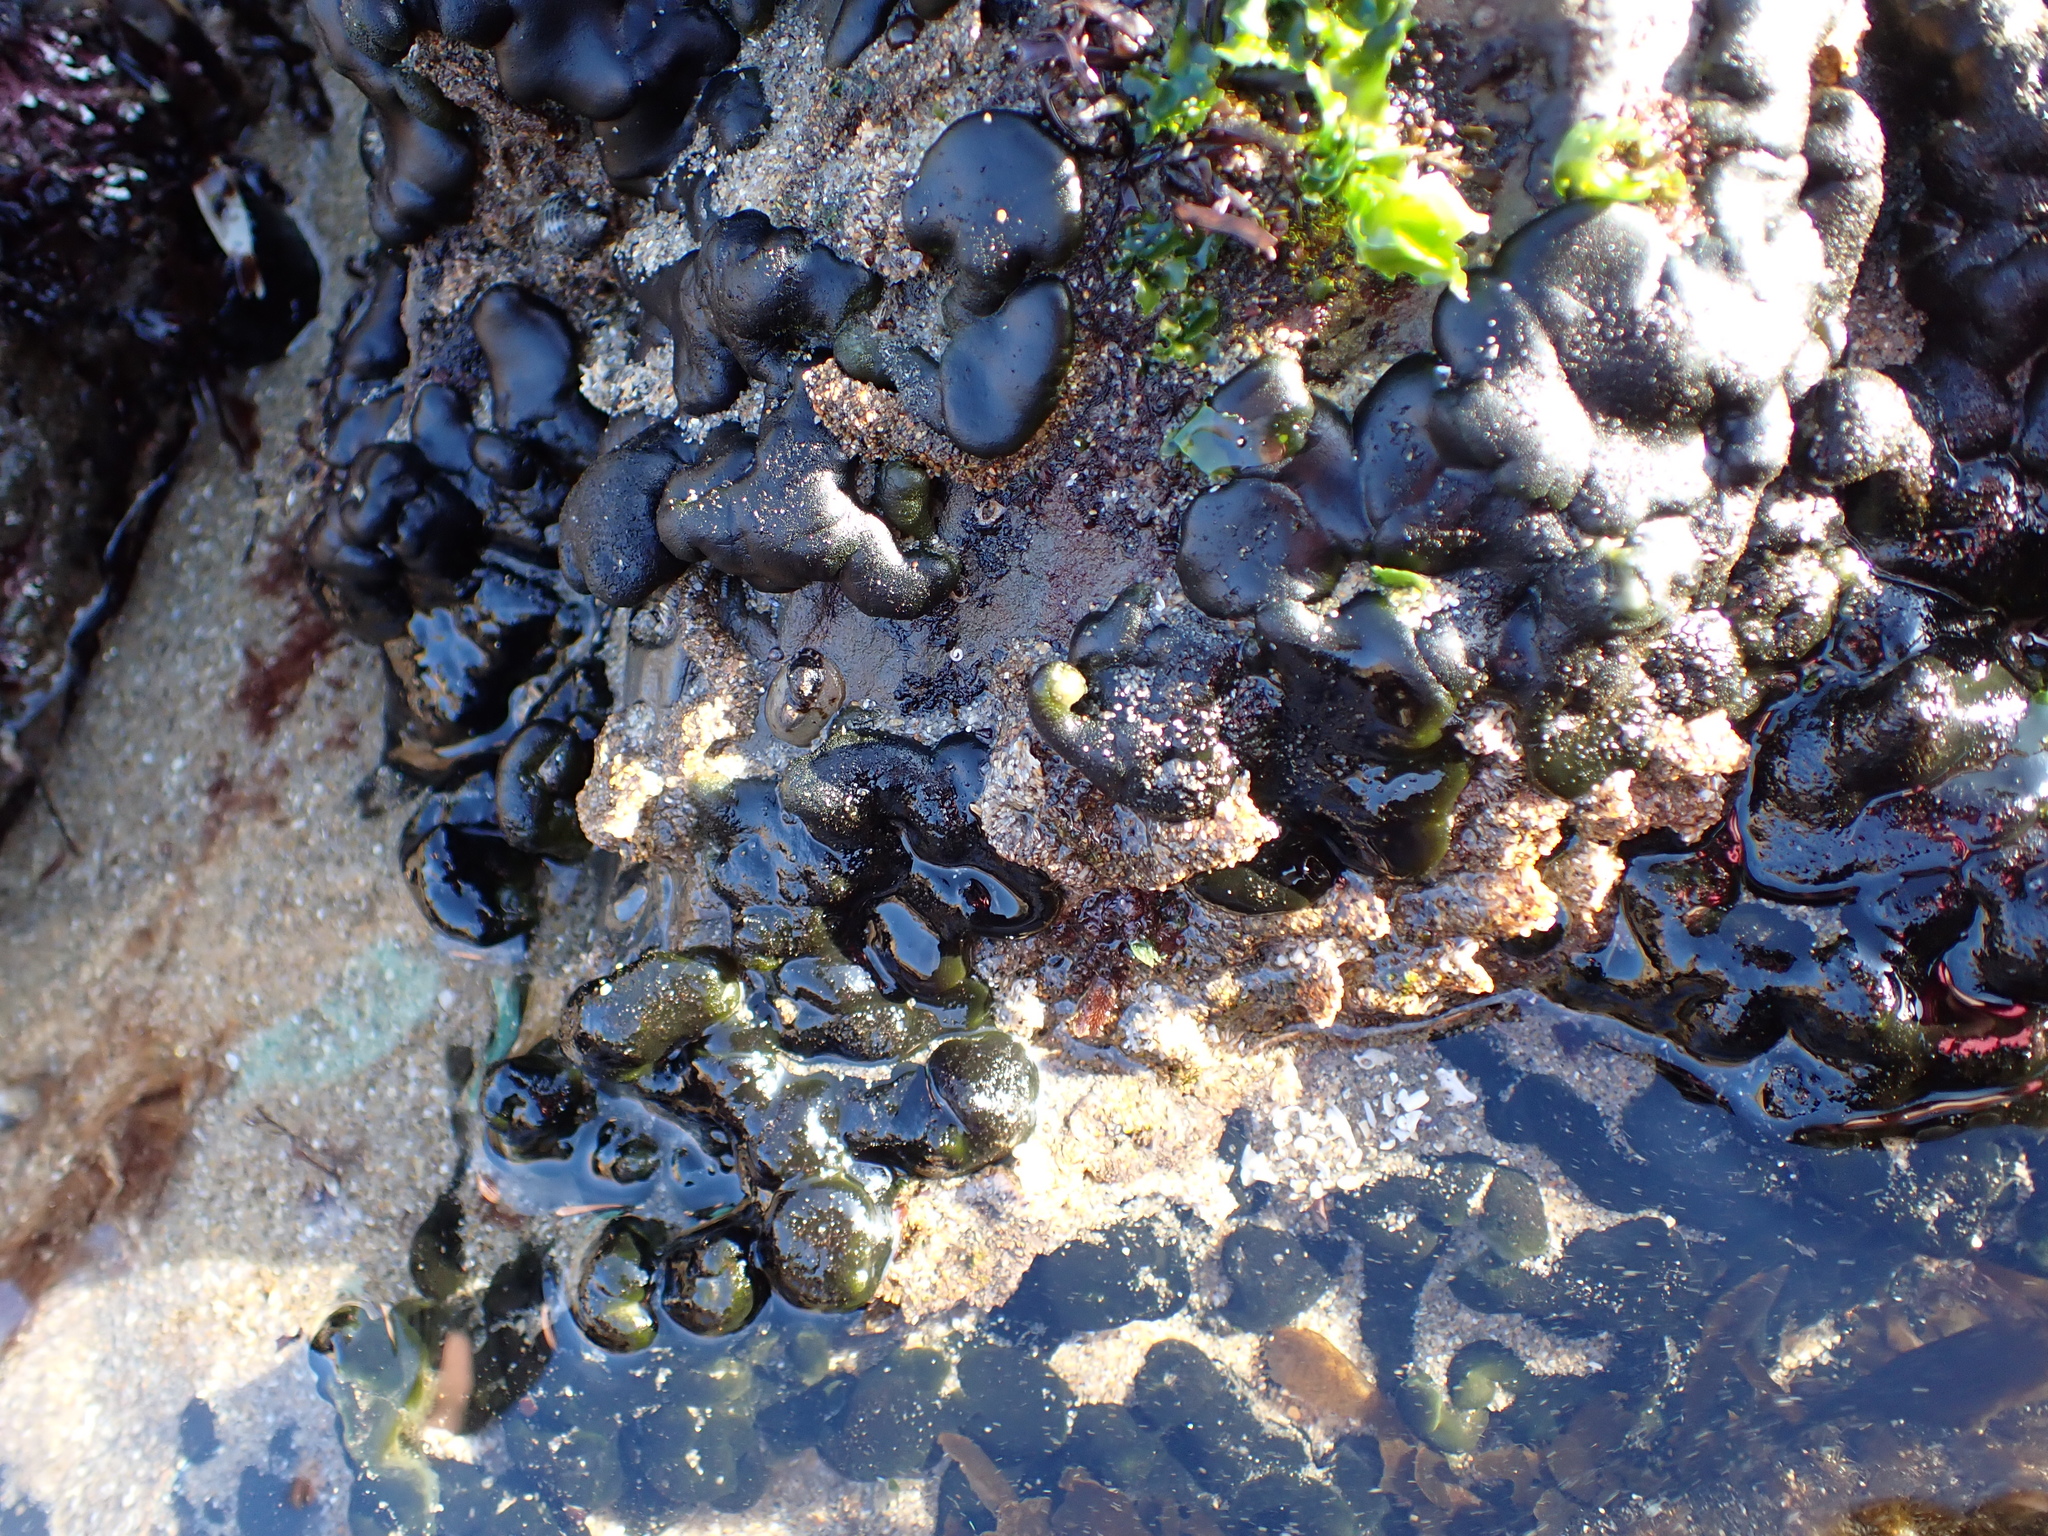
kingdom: Plantae
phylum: Chlorophyta
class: Ulvophyceae
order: Bryopsidales
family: Codiaceae
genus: Codium
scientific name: Codium setchellii
